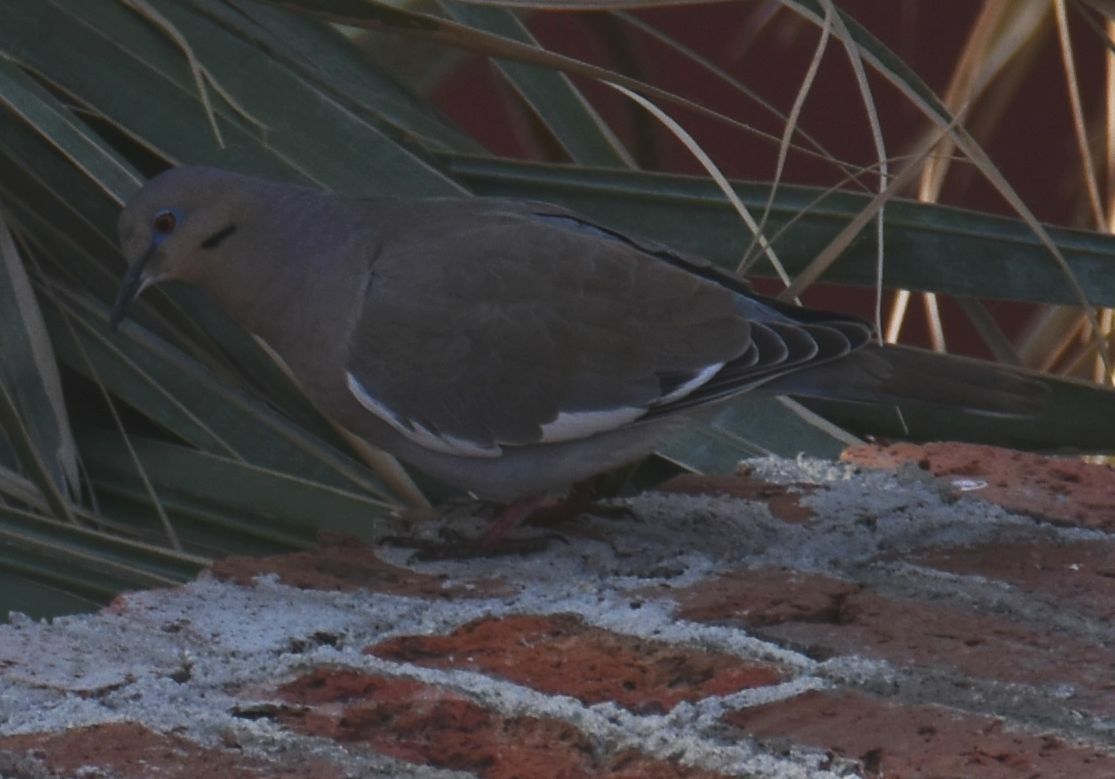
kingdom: Animalia
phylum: Chordata
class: Aves
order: Columbiformes
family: Columbidae
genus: Zenaida
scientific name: Zenaida asiatica
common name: White-winged dove
